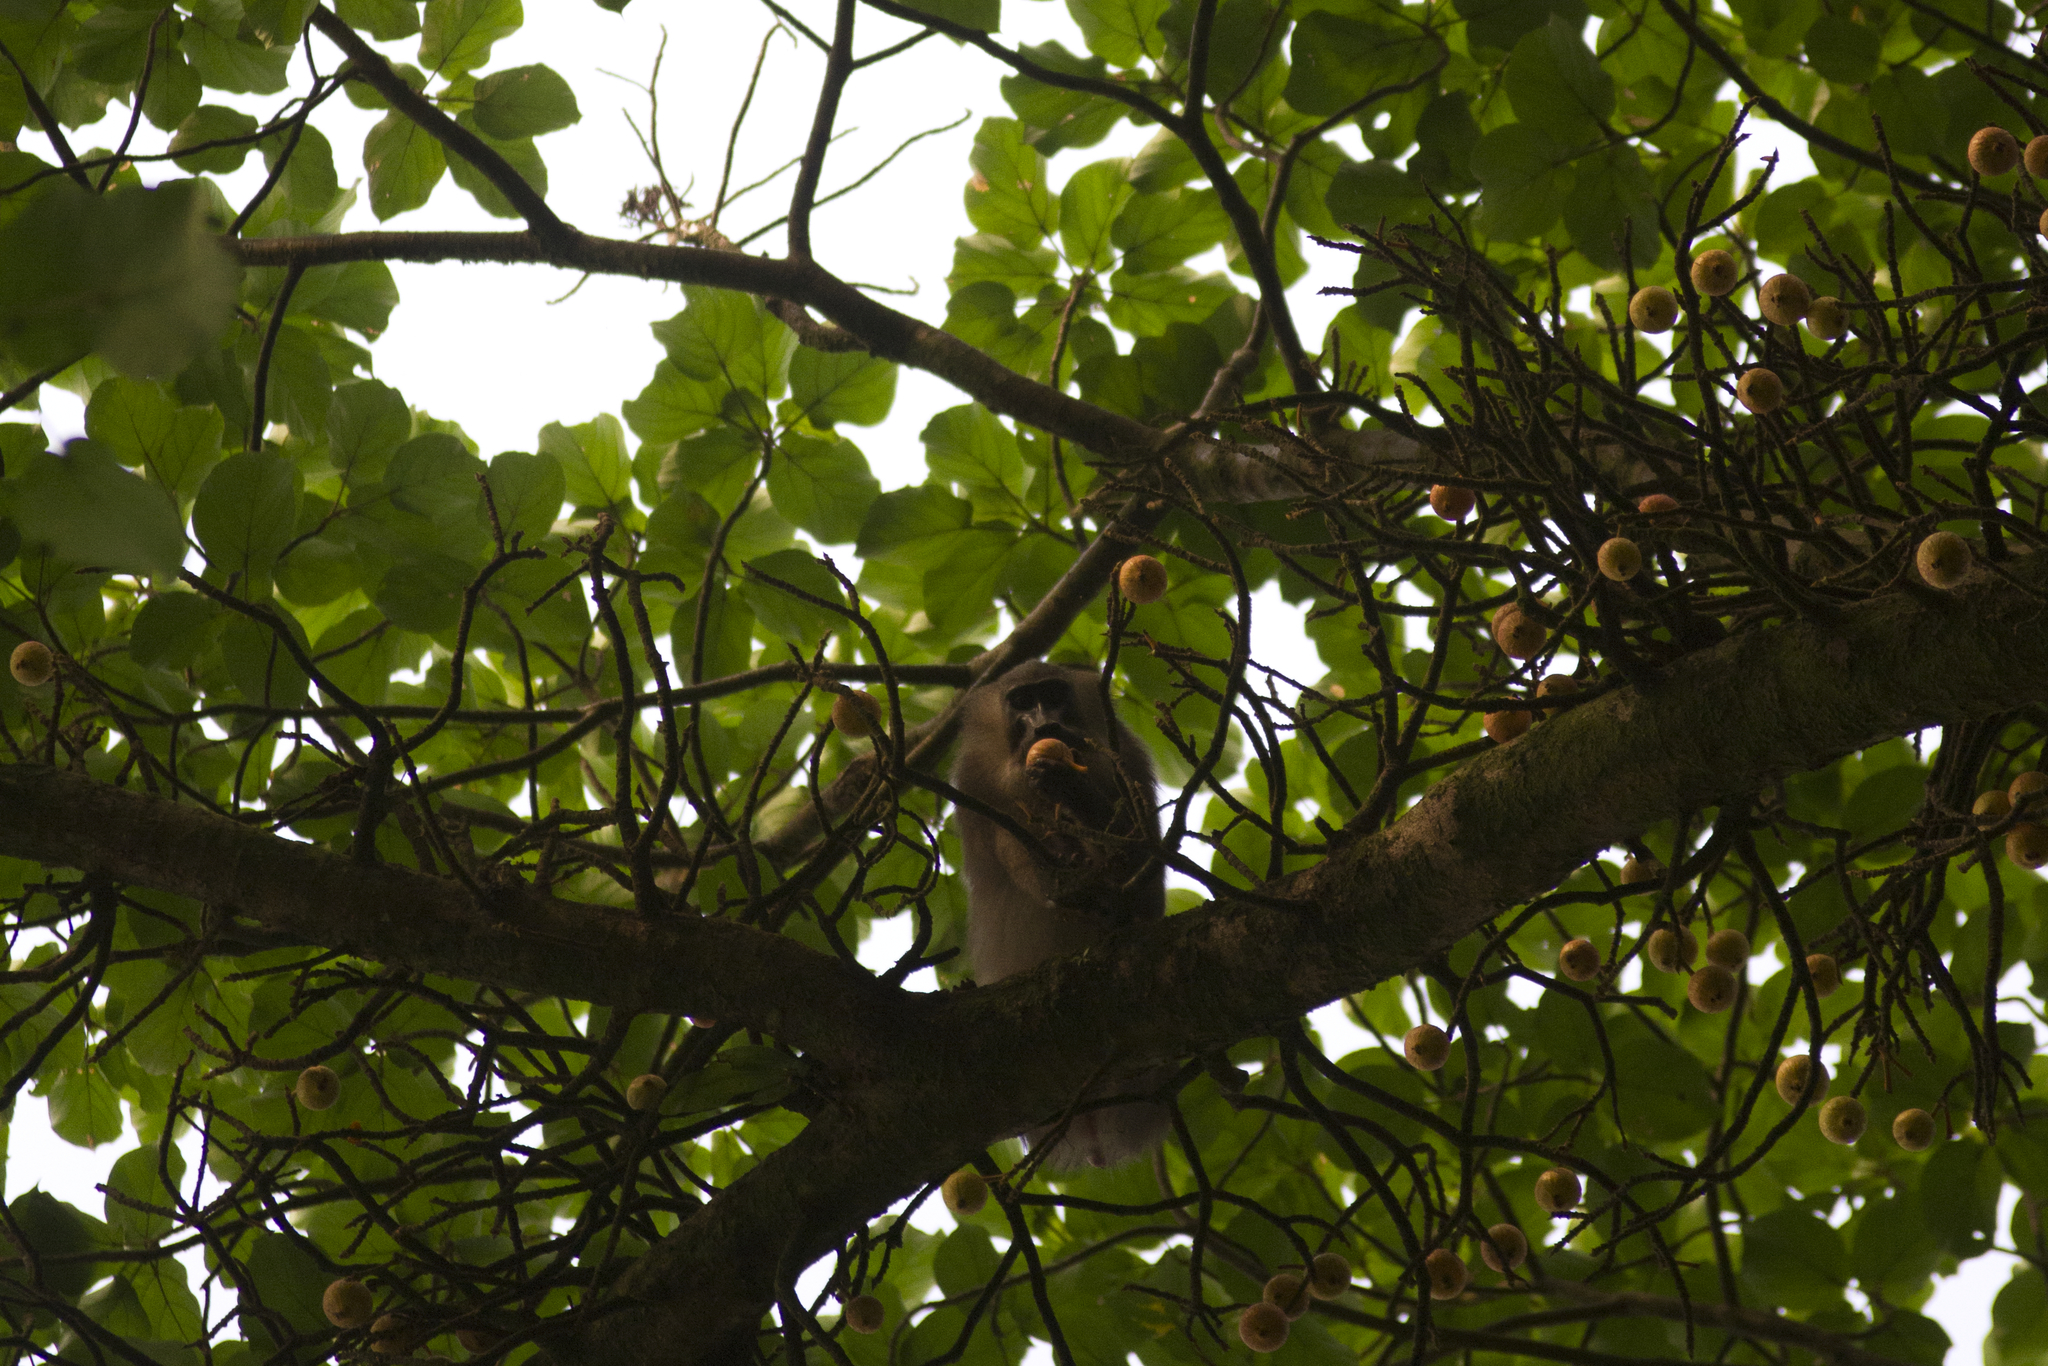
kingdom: Animalia
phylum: Chordata
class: Mammalia
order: Primates
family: Cercopithecidae
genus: Mandrillus
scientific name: Mandrillus leucophaeus
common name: Drill
